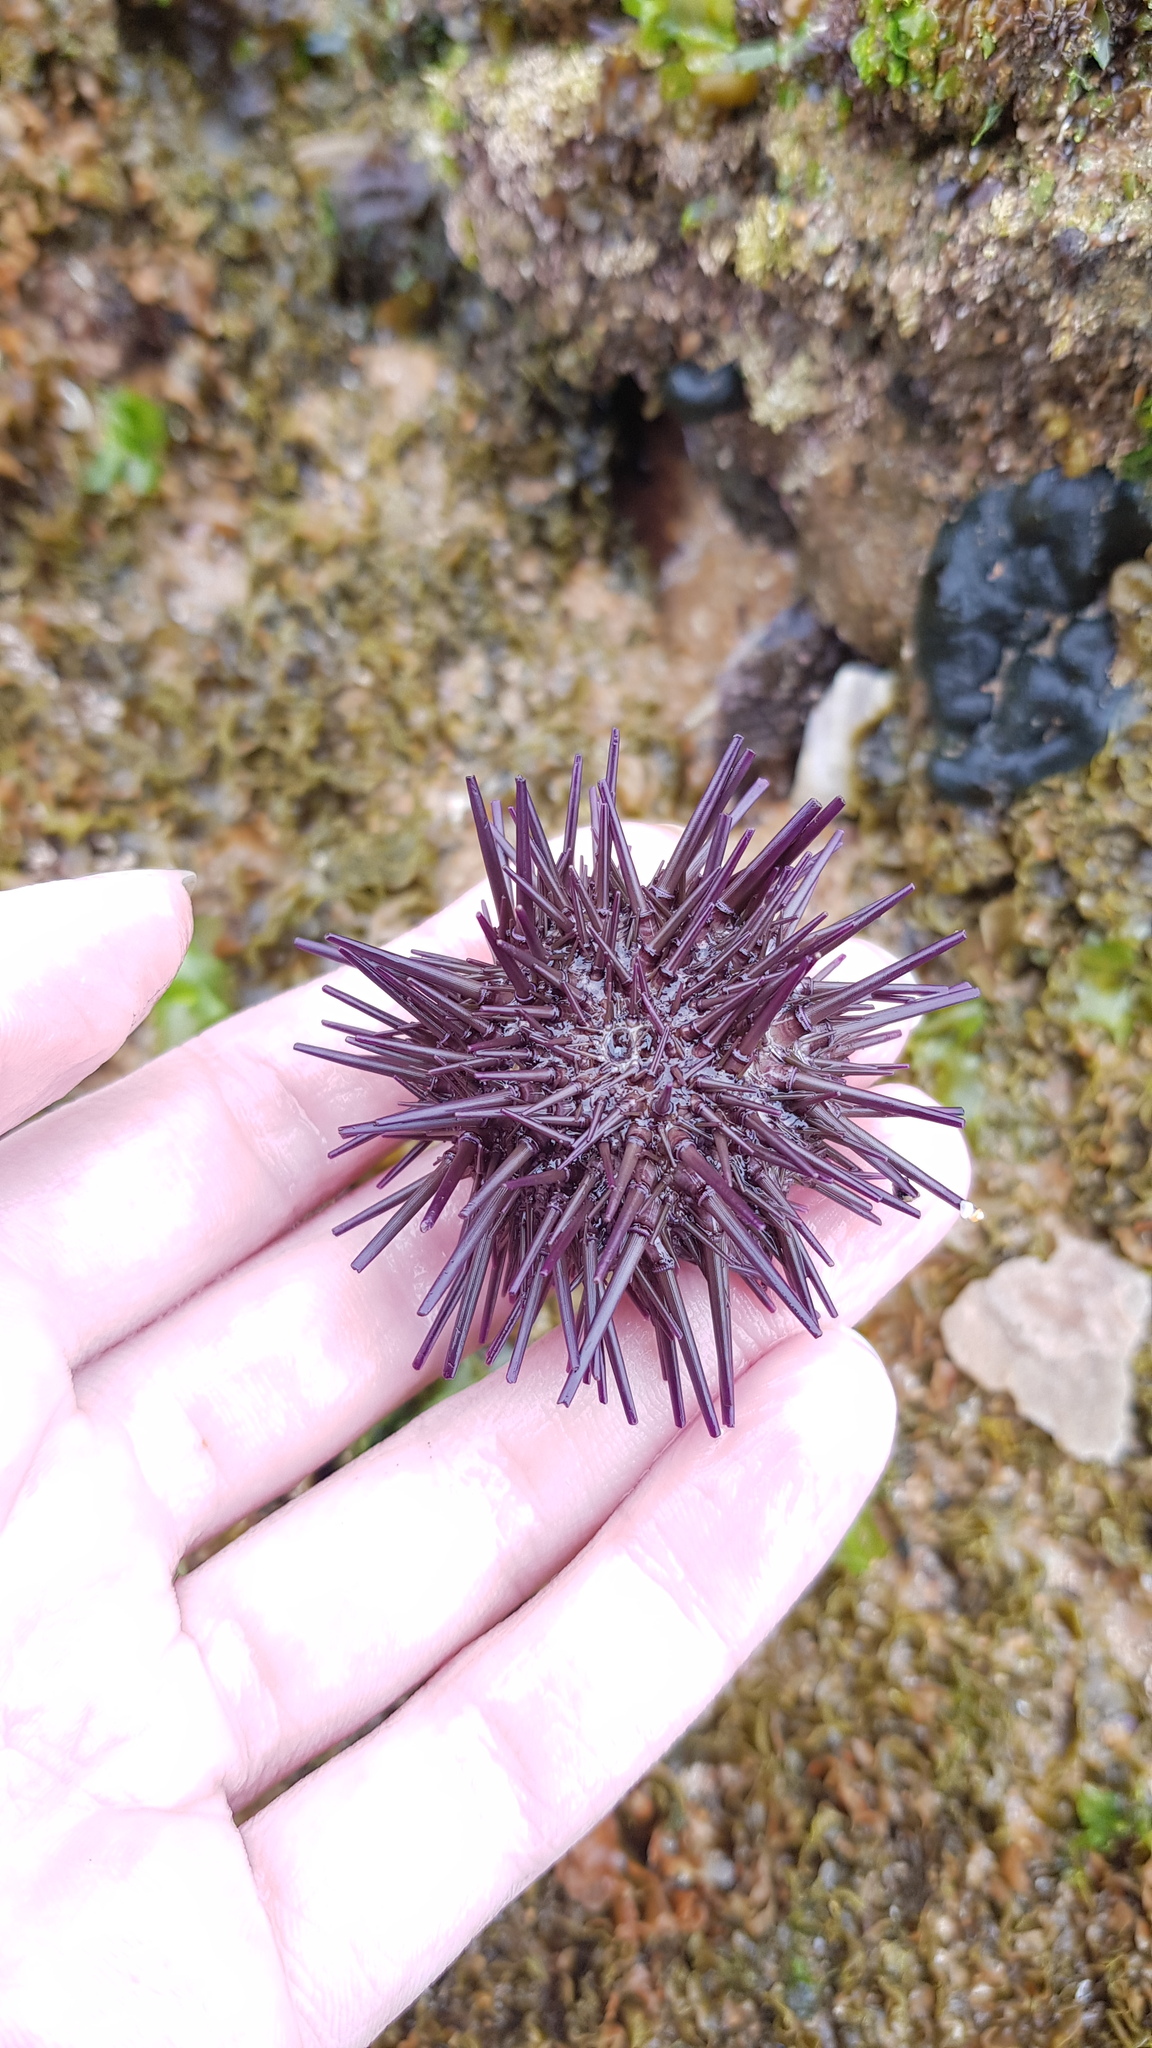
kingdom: Animalia
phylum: Echinodermata
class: Echinoidea
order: Camarodonta
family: Echinometridae
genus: Heliocidaris
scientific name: Heliocidaris erythrogramma
